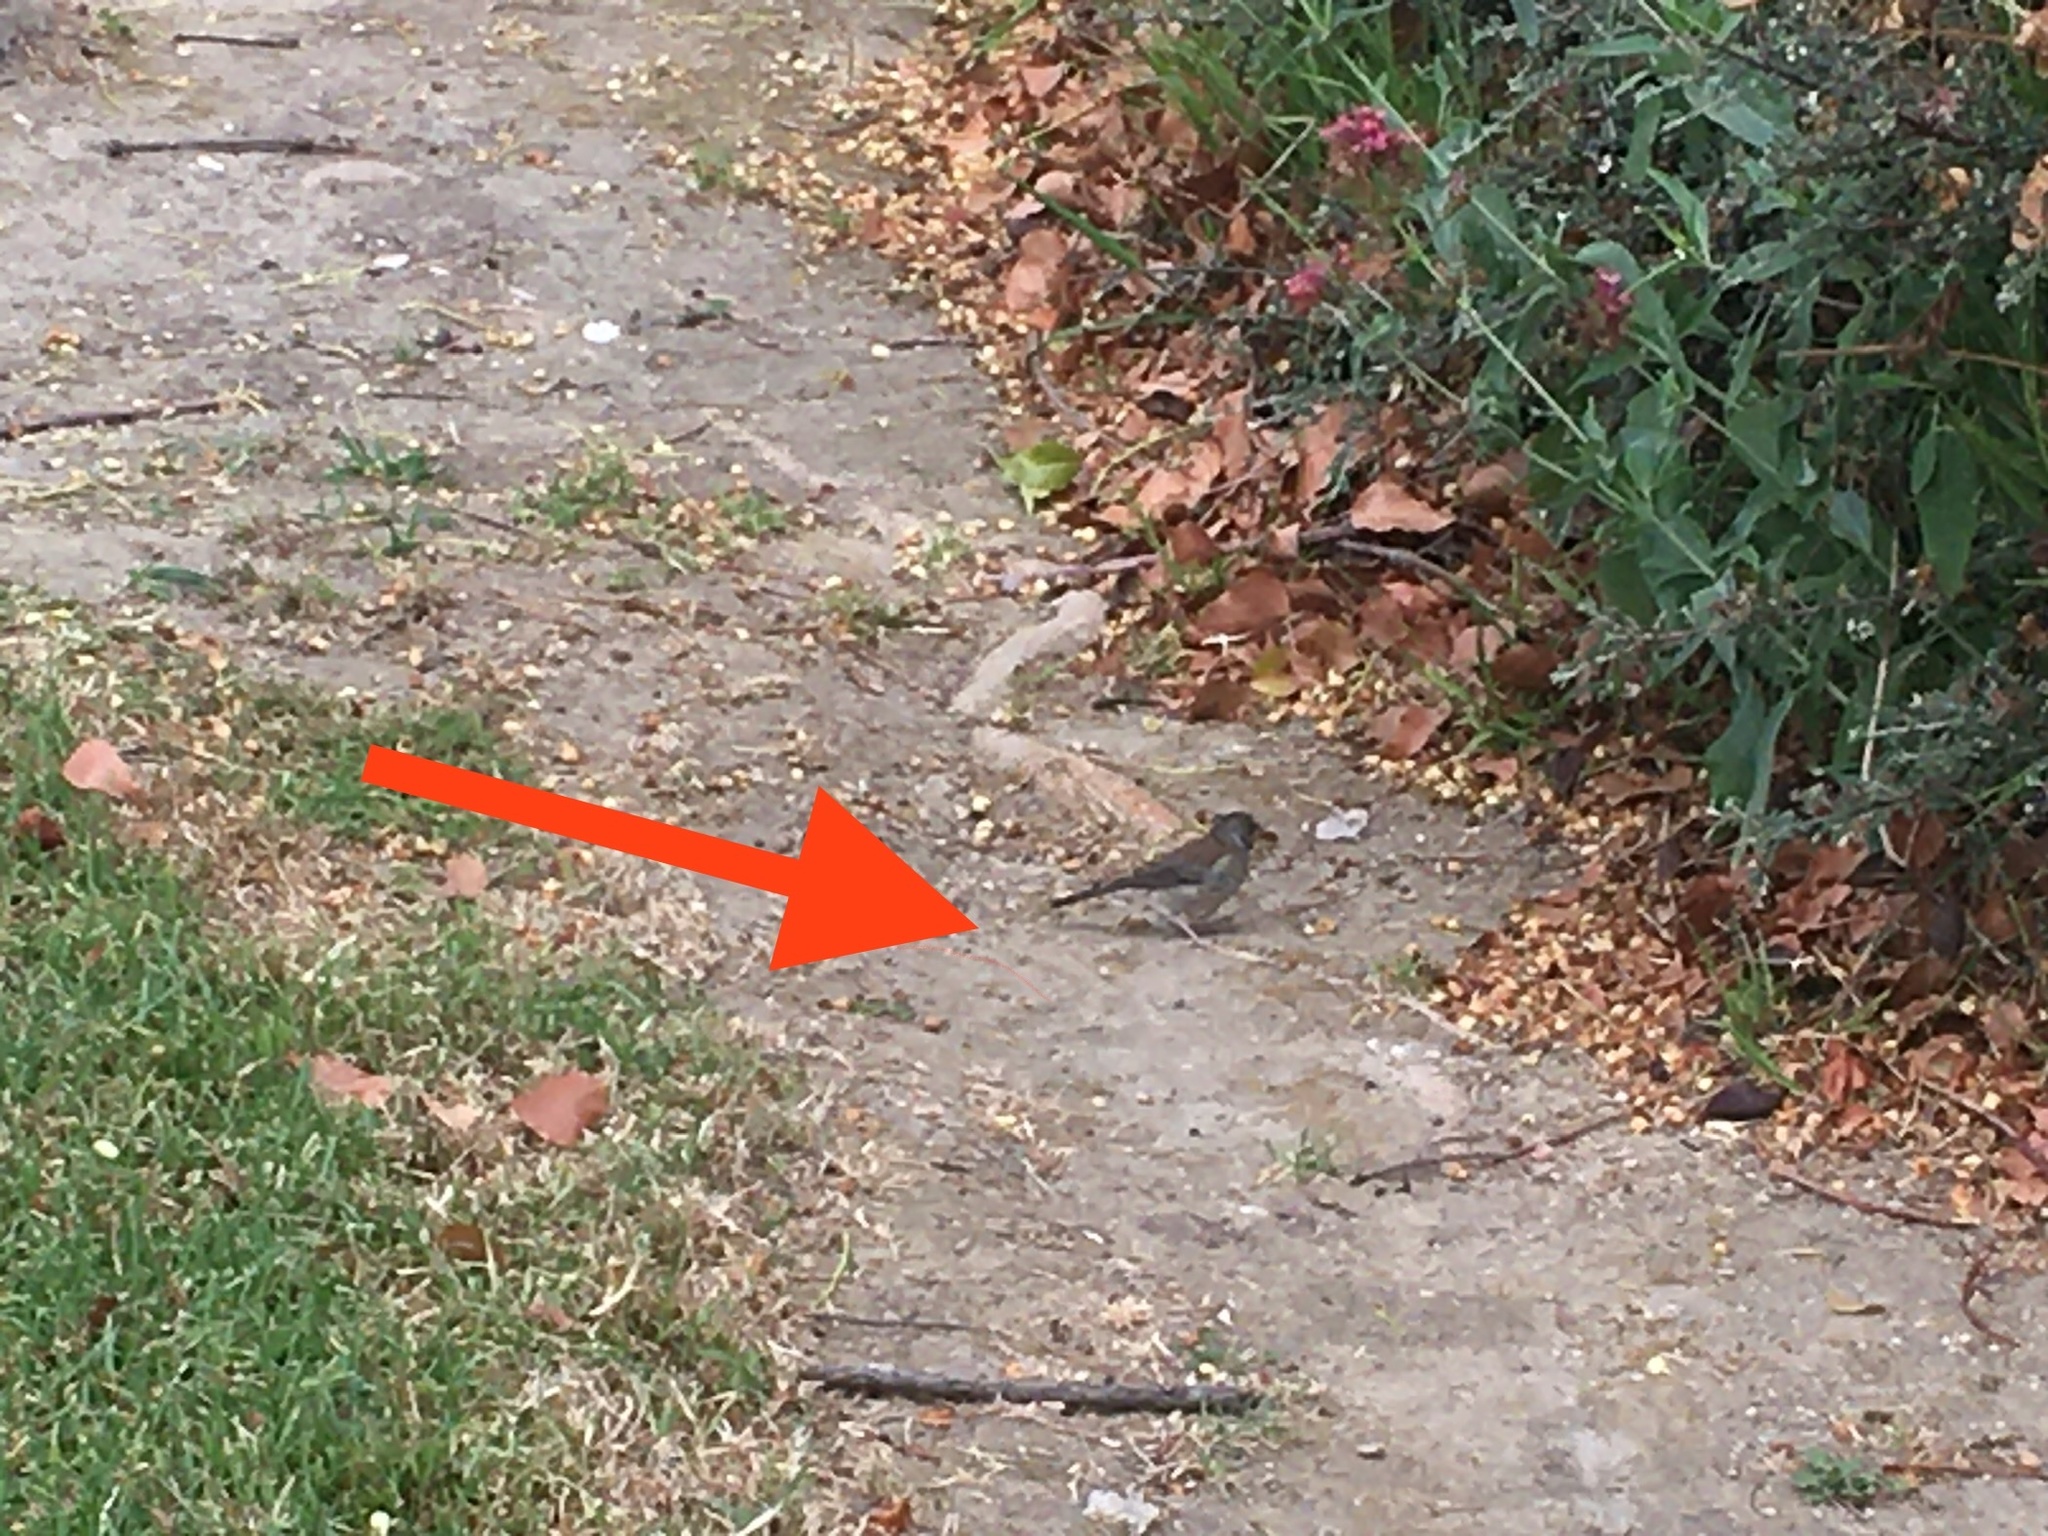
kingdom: Animalia
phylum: Chordata
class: Aves
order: Passeriformes
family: Passerellidae
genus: Junco
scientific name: Junco hyemalis
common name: Dark-eyed junco
